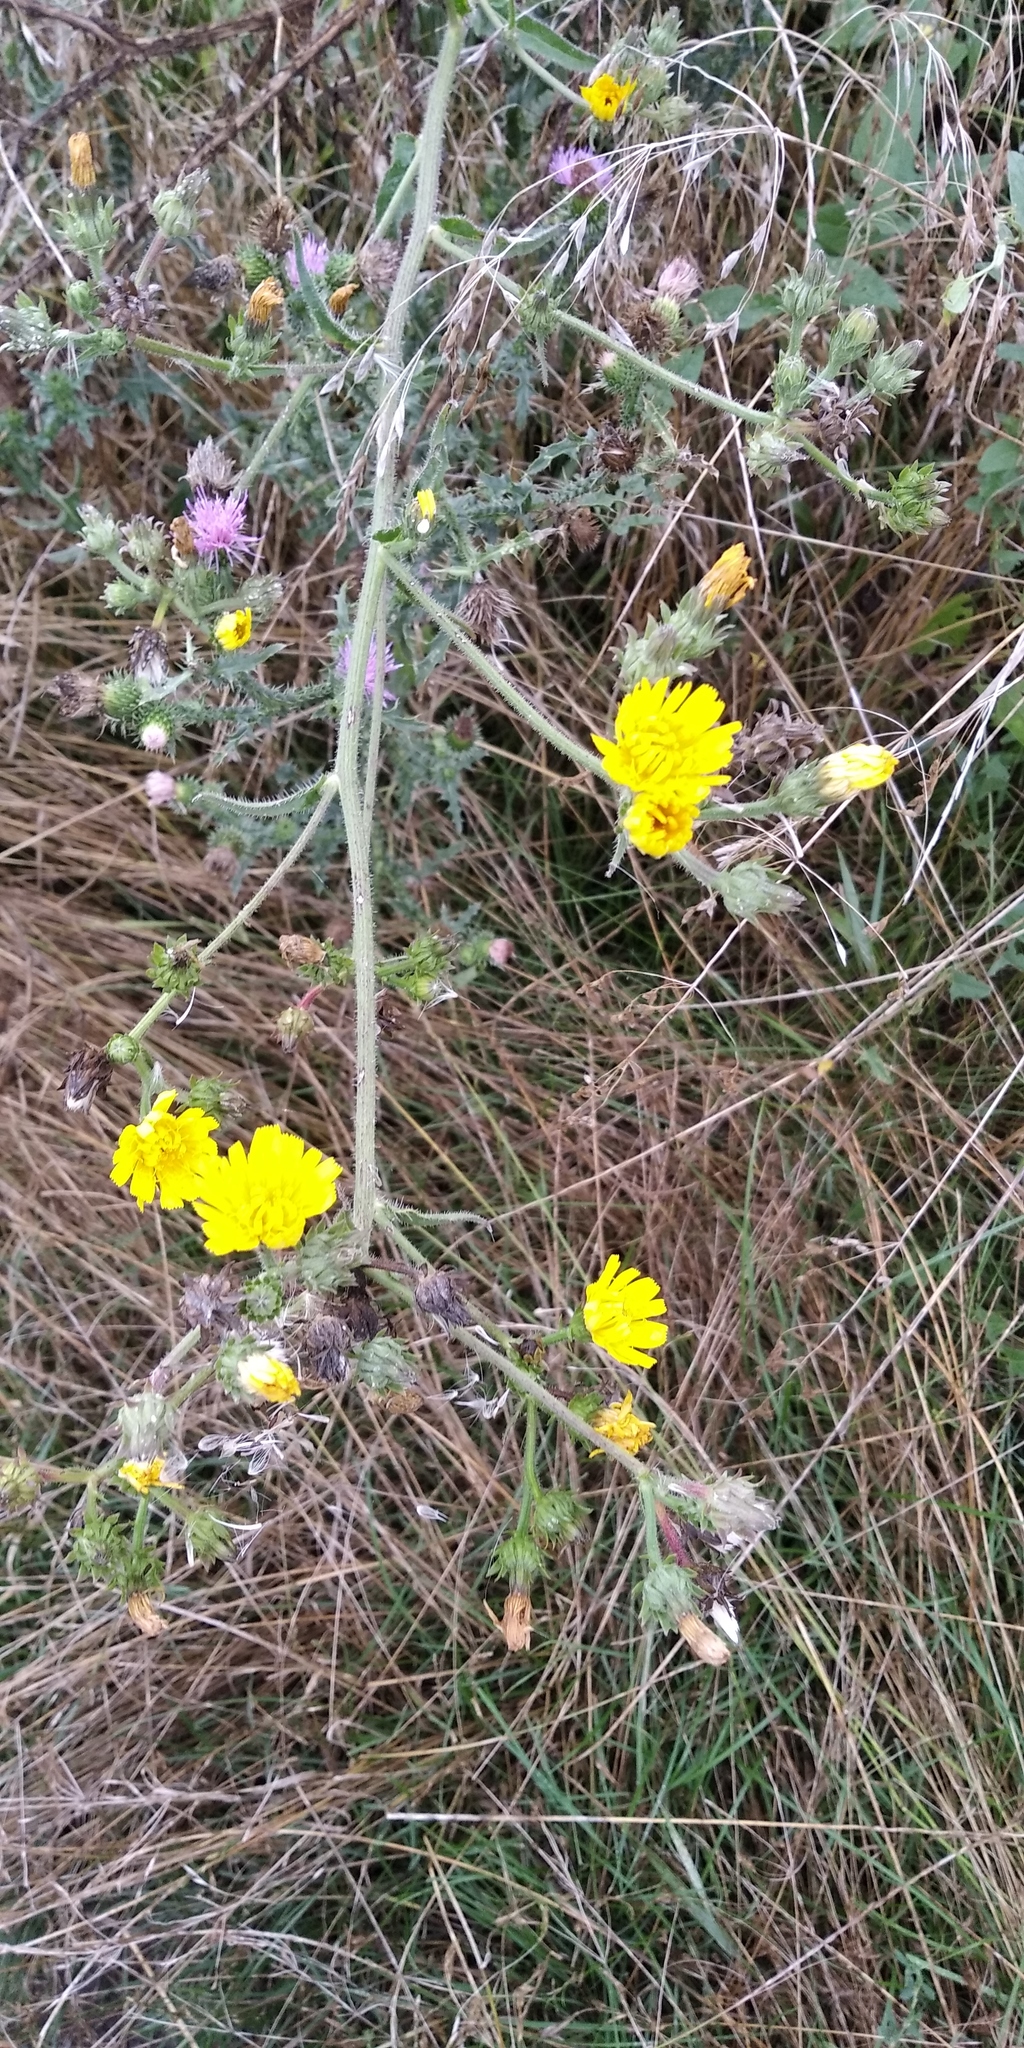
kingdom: Plantae
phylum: Tracheophyta
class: Magnoliopsida
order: Asterales
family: Asteraceae
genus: Picris
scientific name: Picris hieracioides
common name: Hawkweed oxtongue
